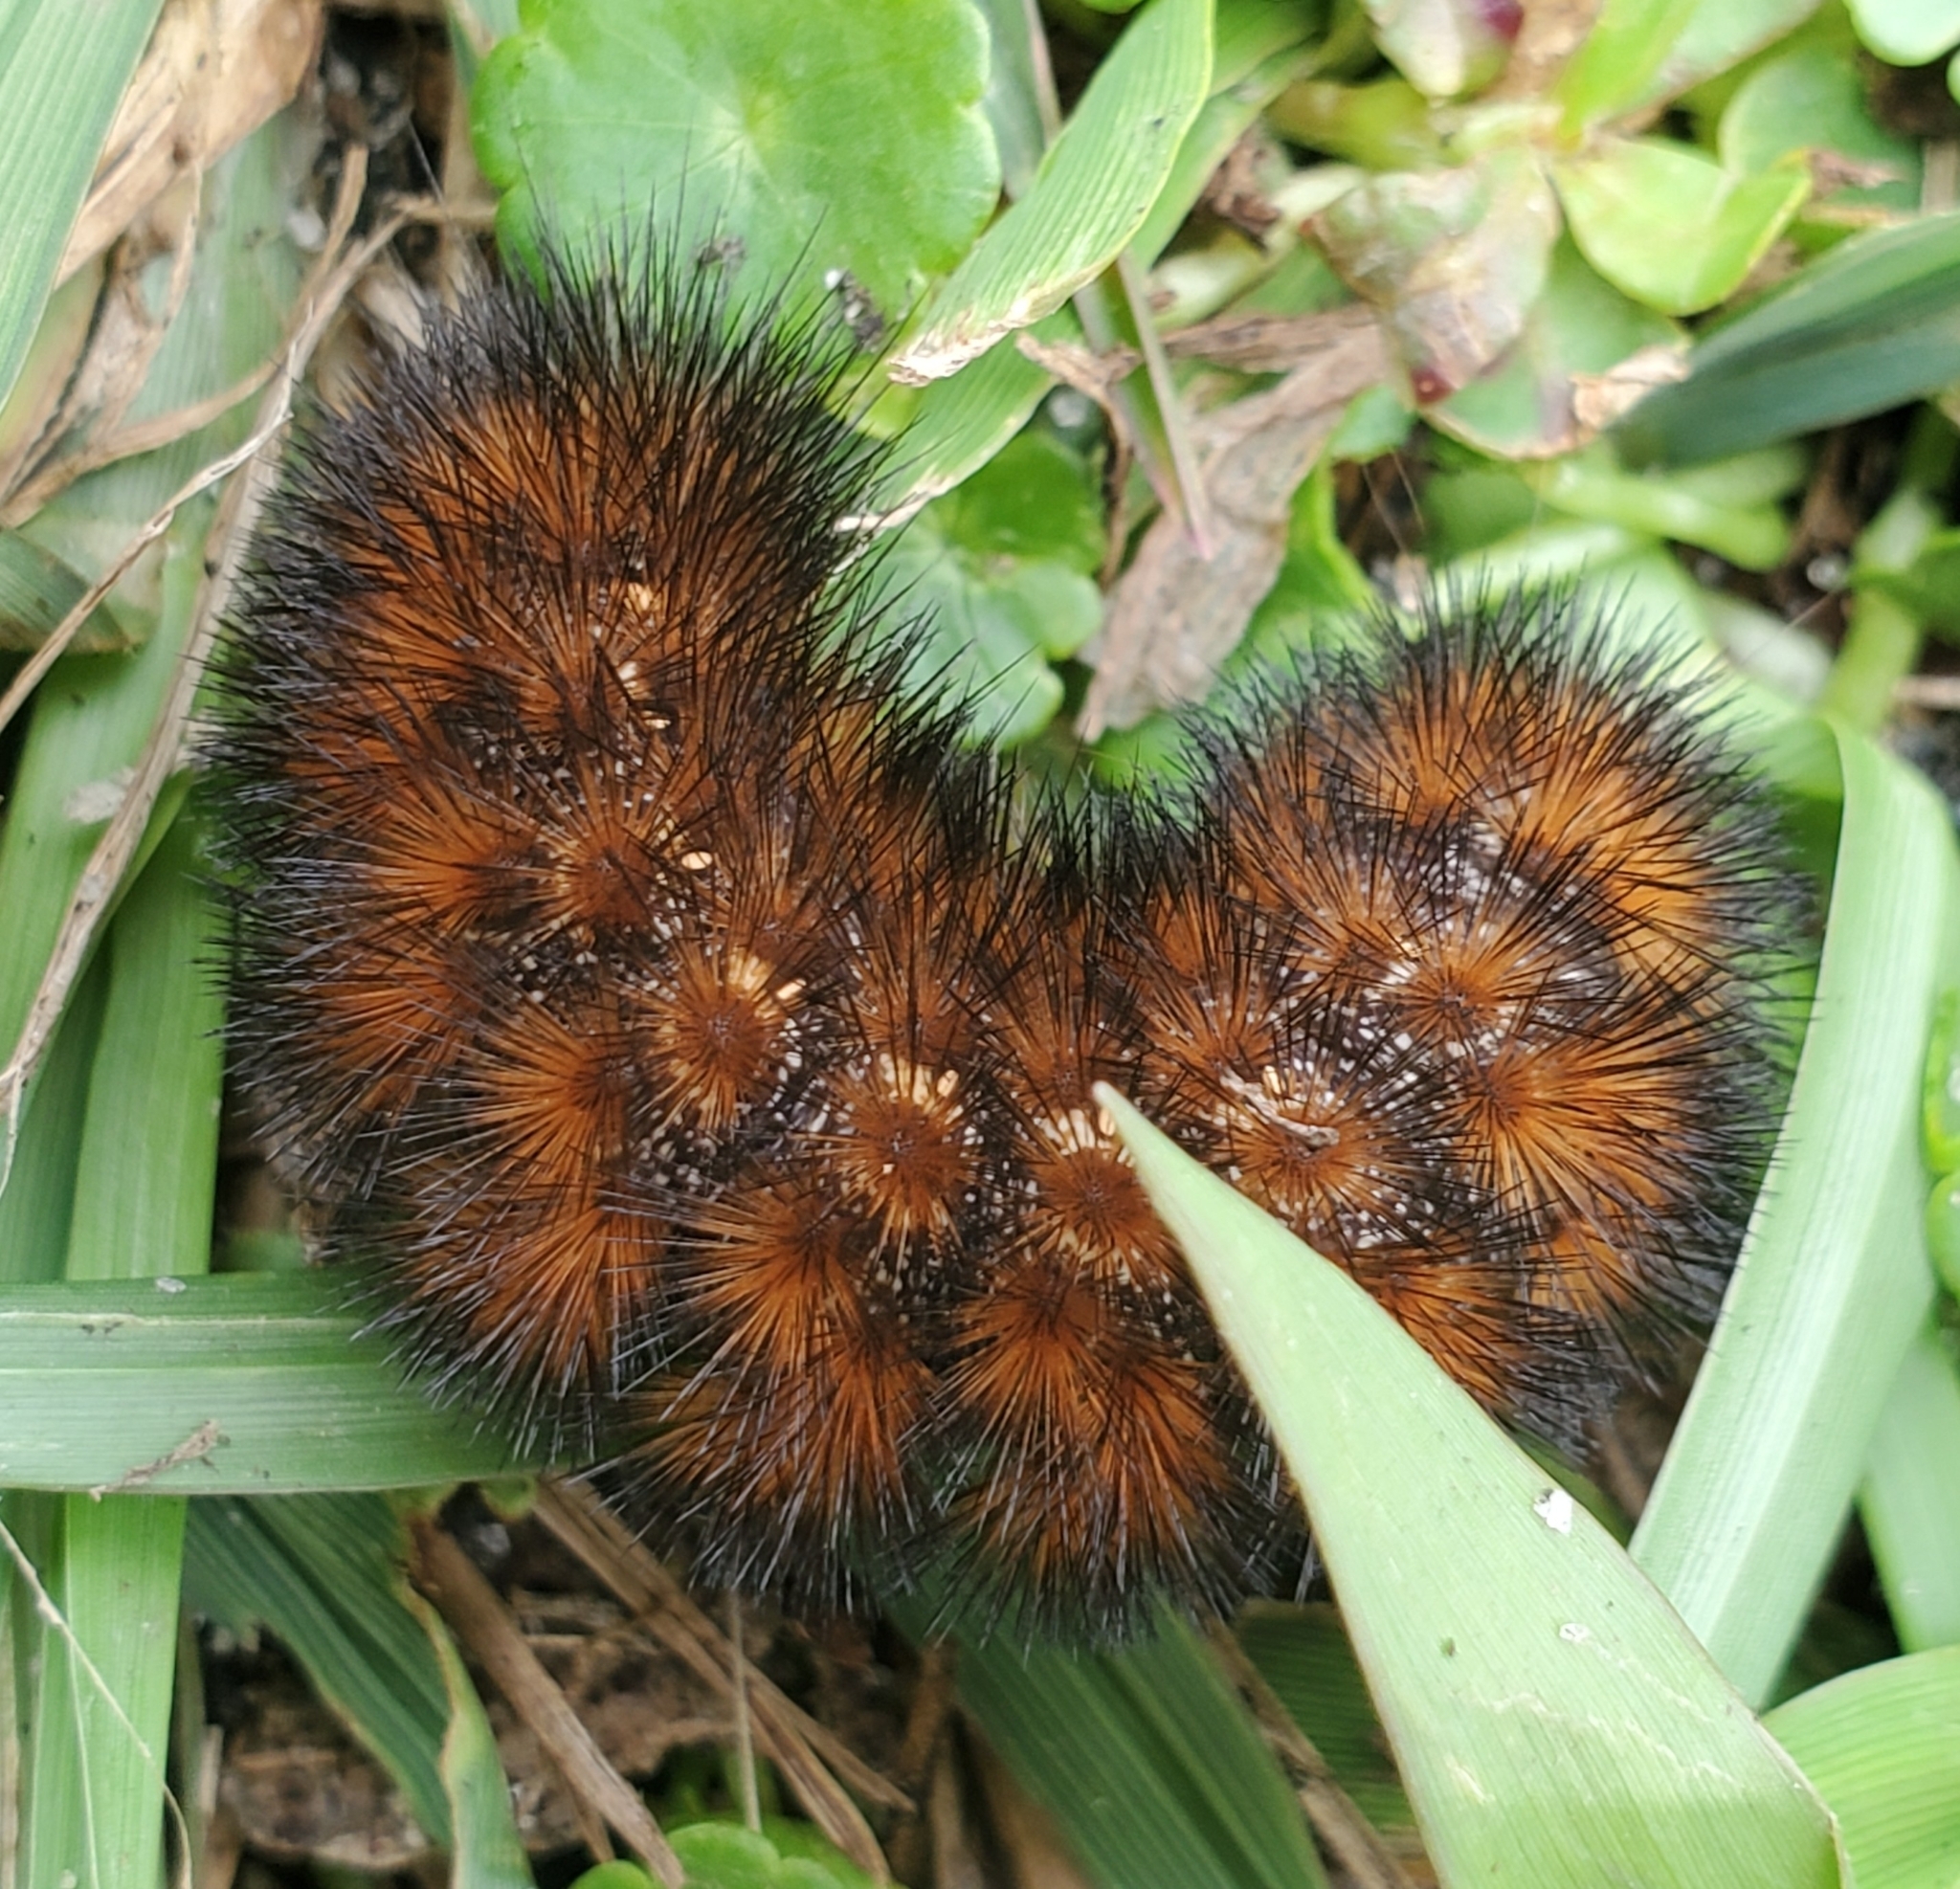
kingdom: Animalia
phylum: Arthropoda
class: Insecta
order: Lepidoptera
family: Erebidae
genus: Pyrrharctia
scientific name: Pyrrharctia isabella
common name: Isabella tiger moth
